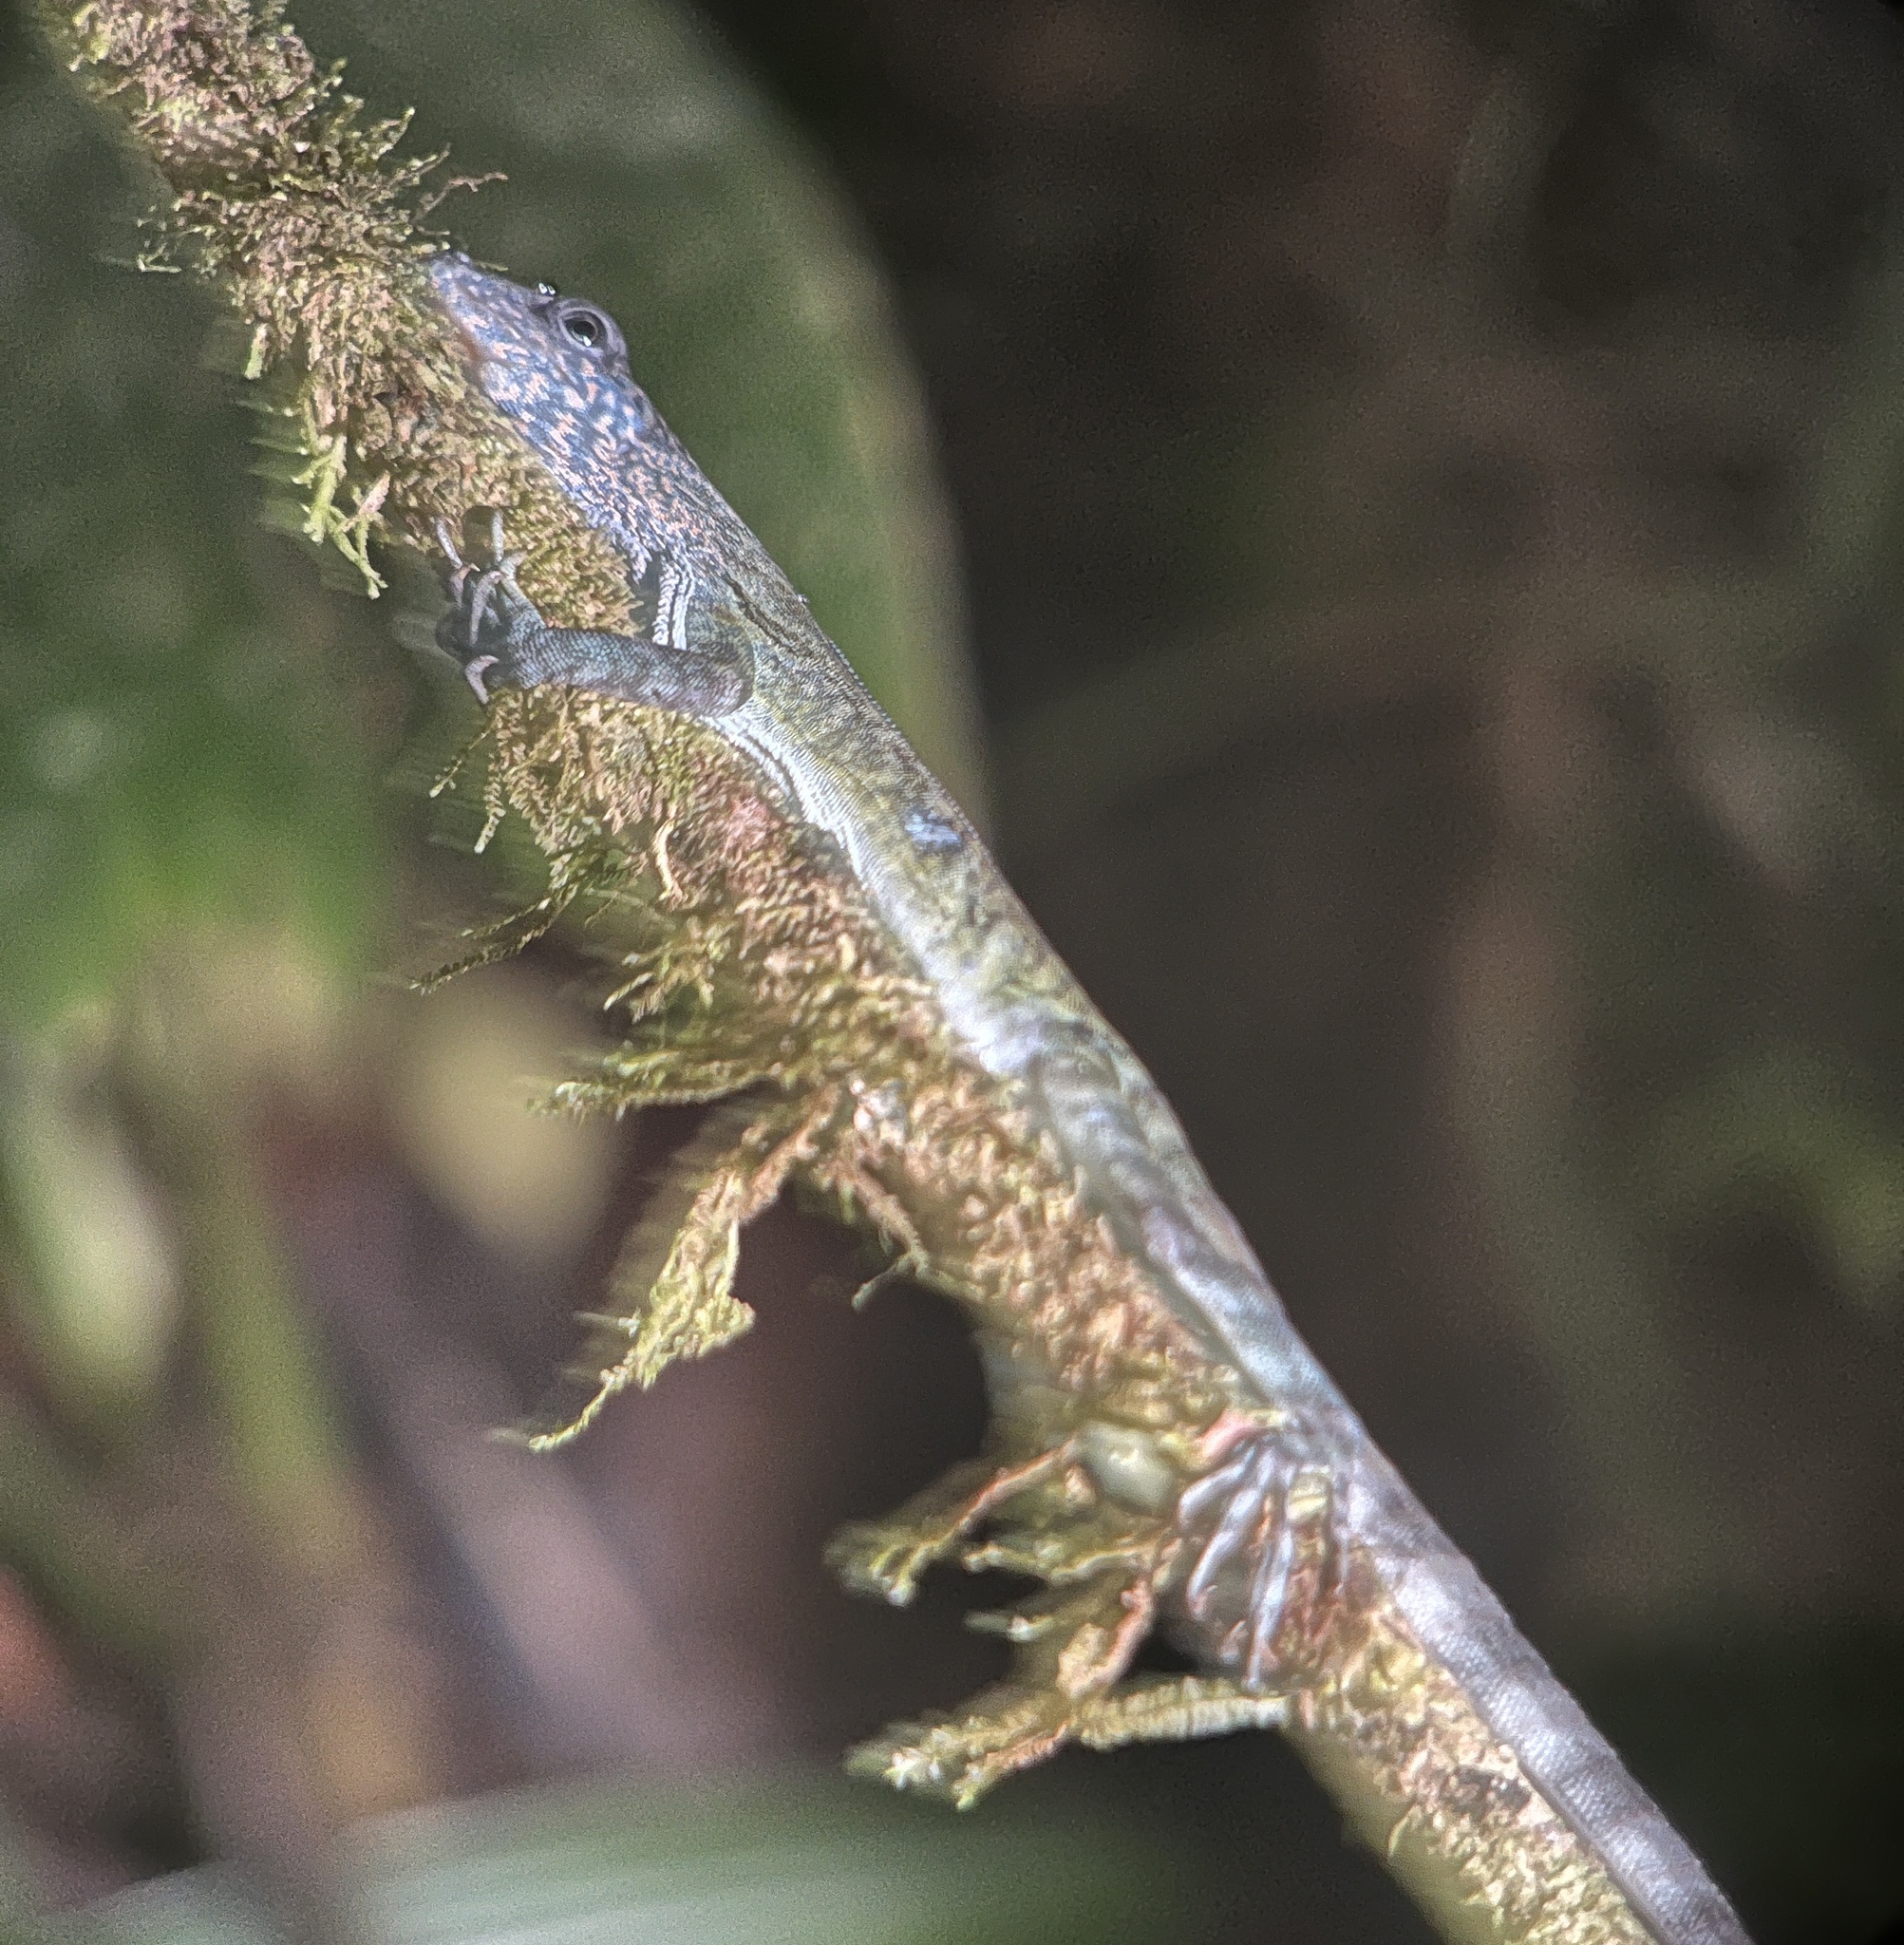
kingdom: Animalia
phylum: Chordata
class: Squamata
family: Dactyloidae
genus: Anolis
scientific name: Anolis maculigula
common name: Rueda's anole
